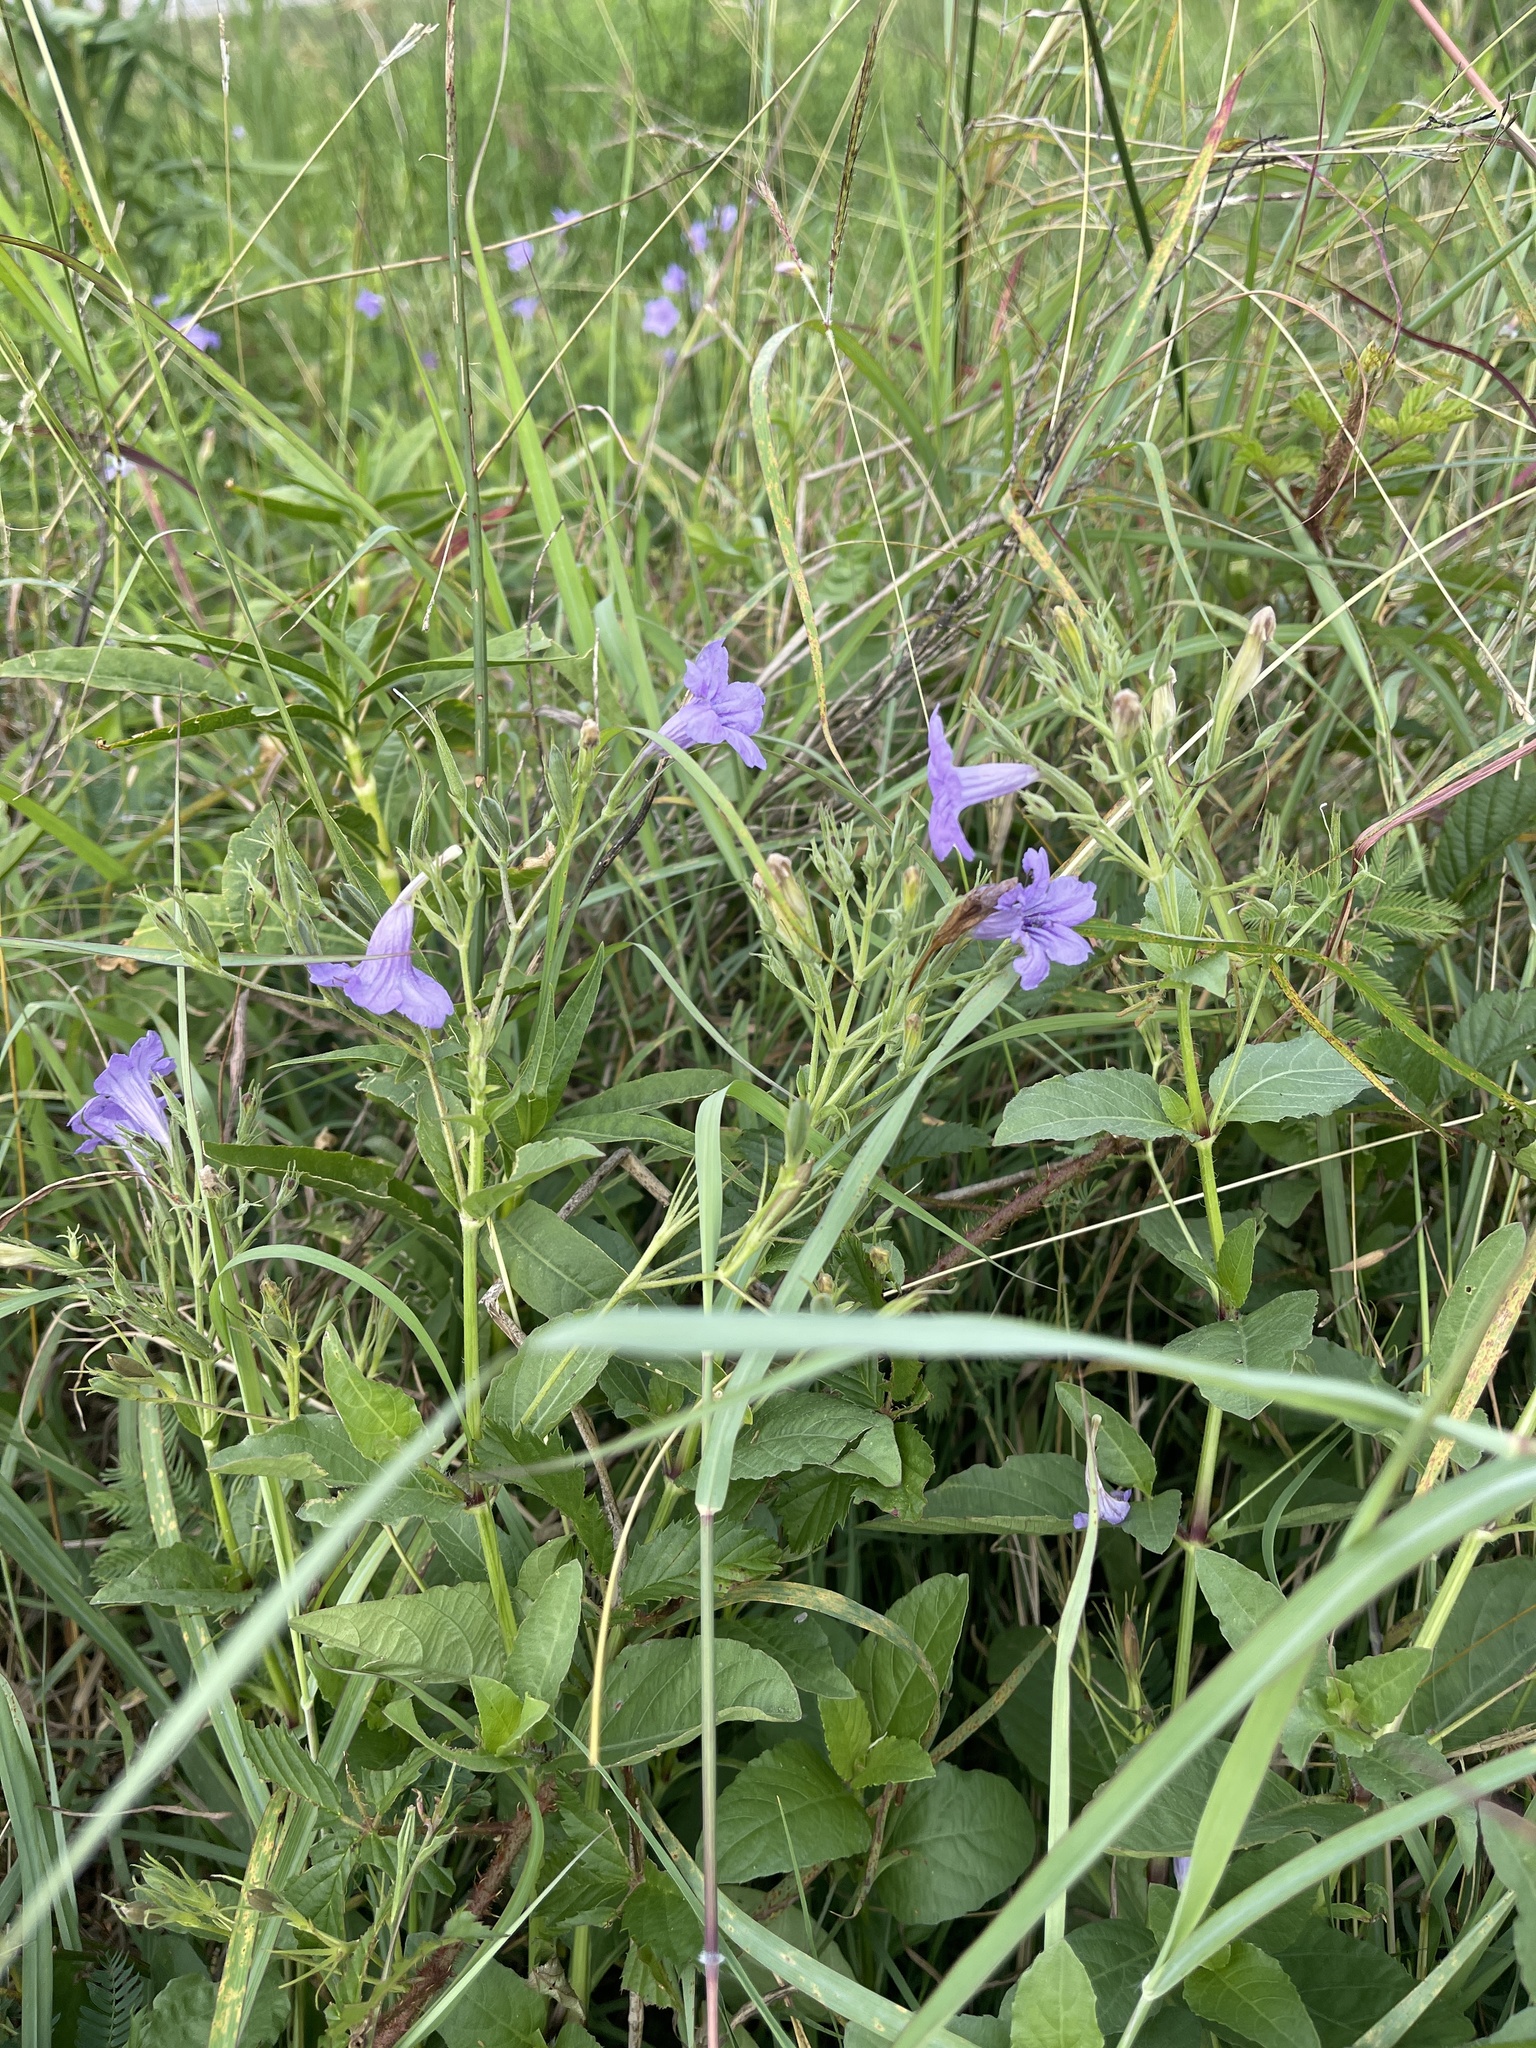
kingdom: Plantae
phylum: Tracheophyta
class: Magnoliopsida
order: Lamiales
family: Acanthaceae
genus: Ruellia
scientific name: Ruellia ciliatiflora
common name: Hairyflower wild petunia
